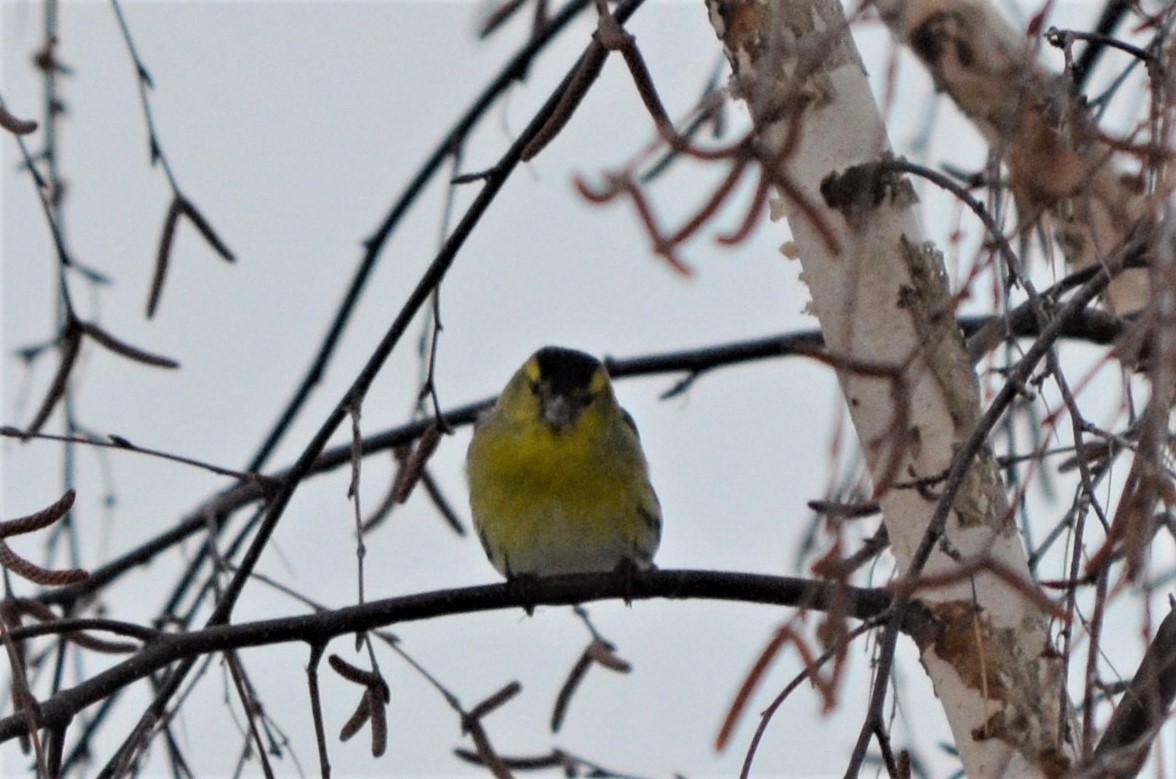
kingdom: Animalia
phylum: Chordata
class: Aves
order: Passeriformes
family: Fringillidae
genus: Spinus
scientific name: Spinus spinus
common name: Eurasian siskin
